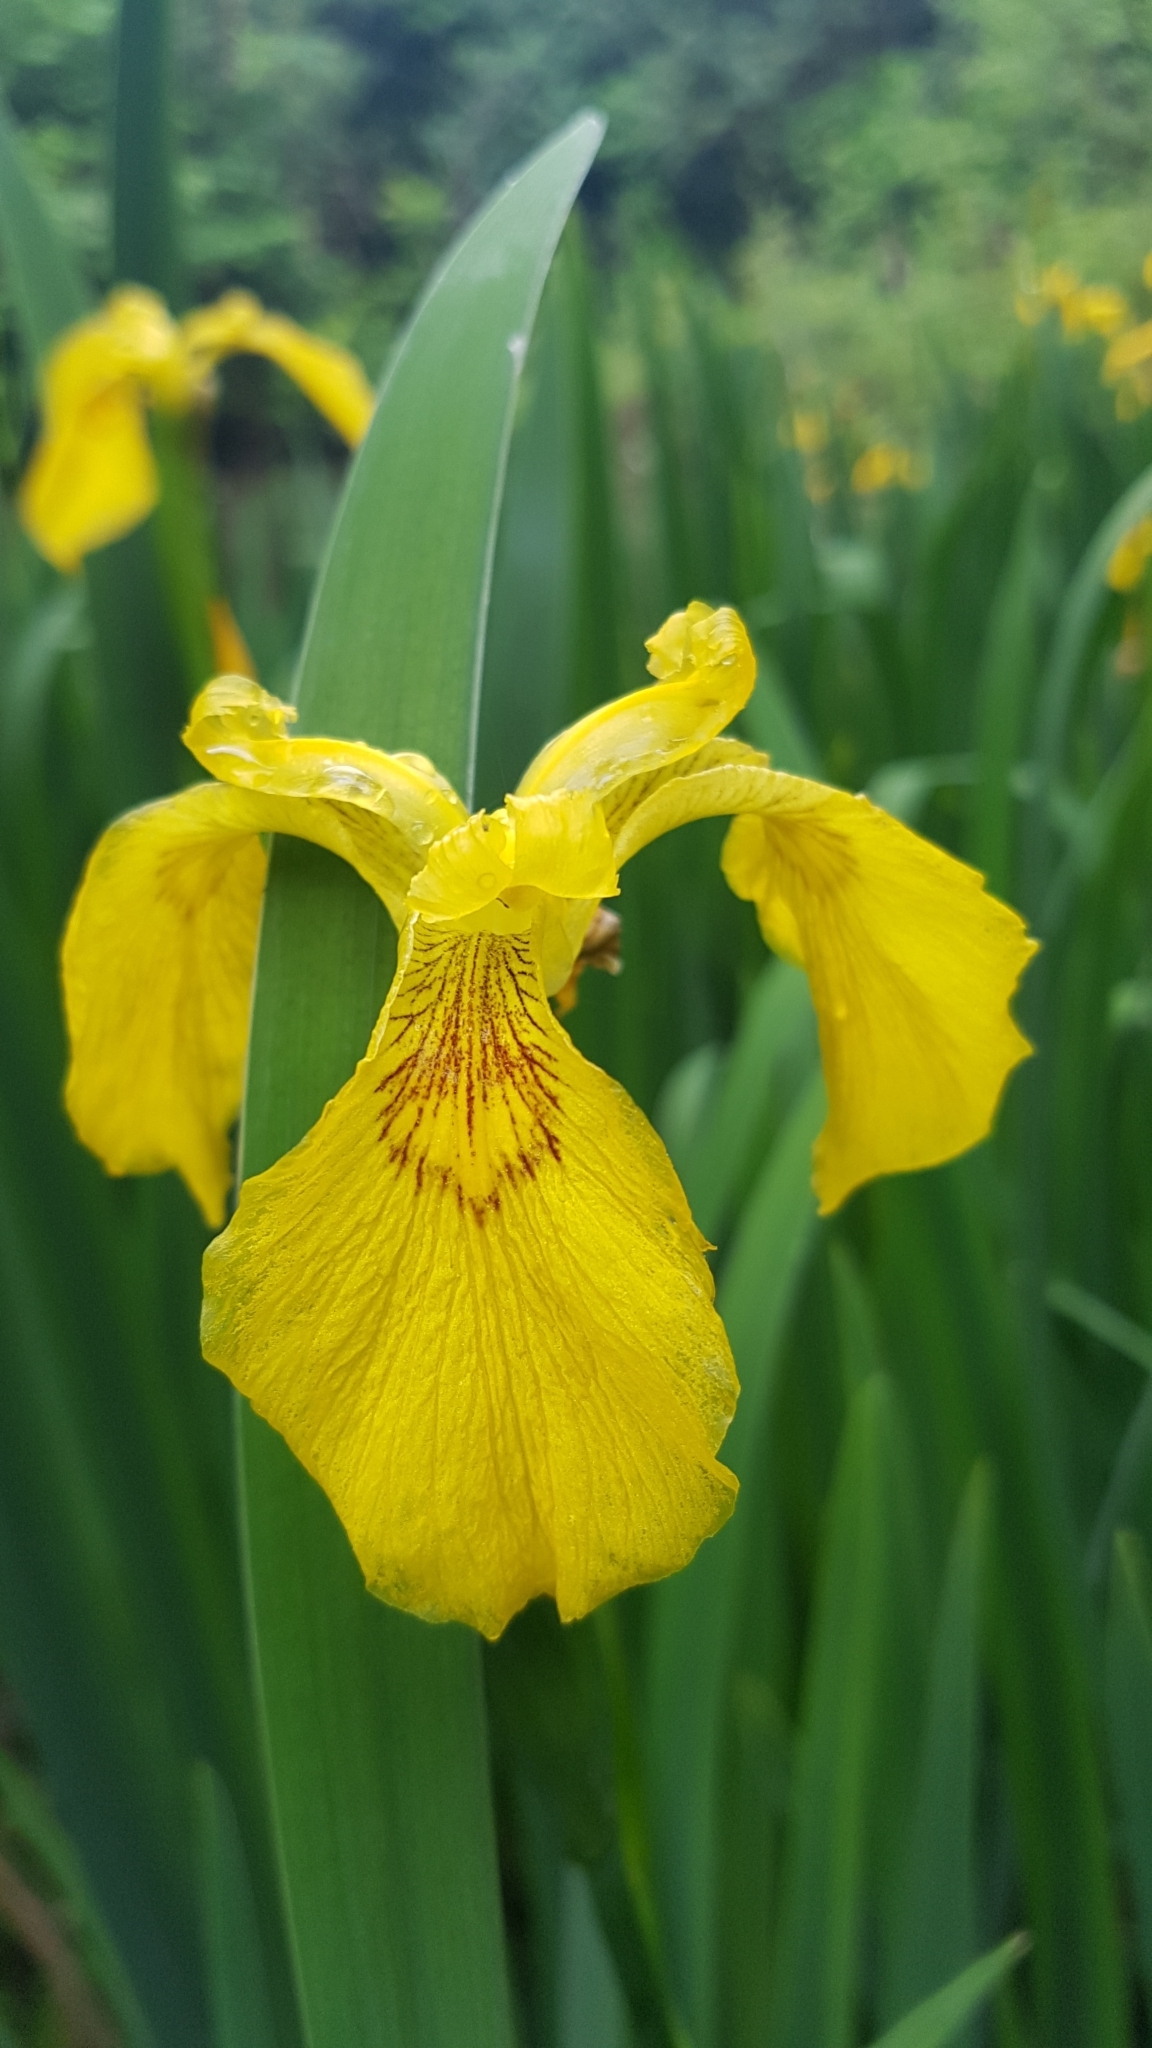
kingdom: Plantae
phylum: Tracheophyta
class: Liliopsida
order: Asparagales
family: Iridaceae
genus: Iris
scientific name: Iris pseudacorus
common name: Yellow flag
